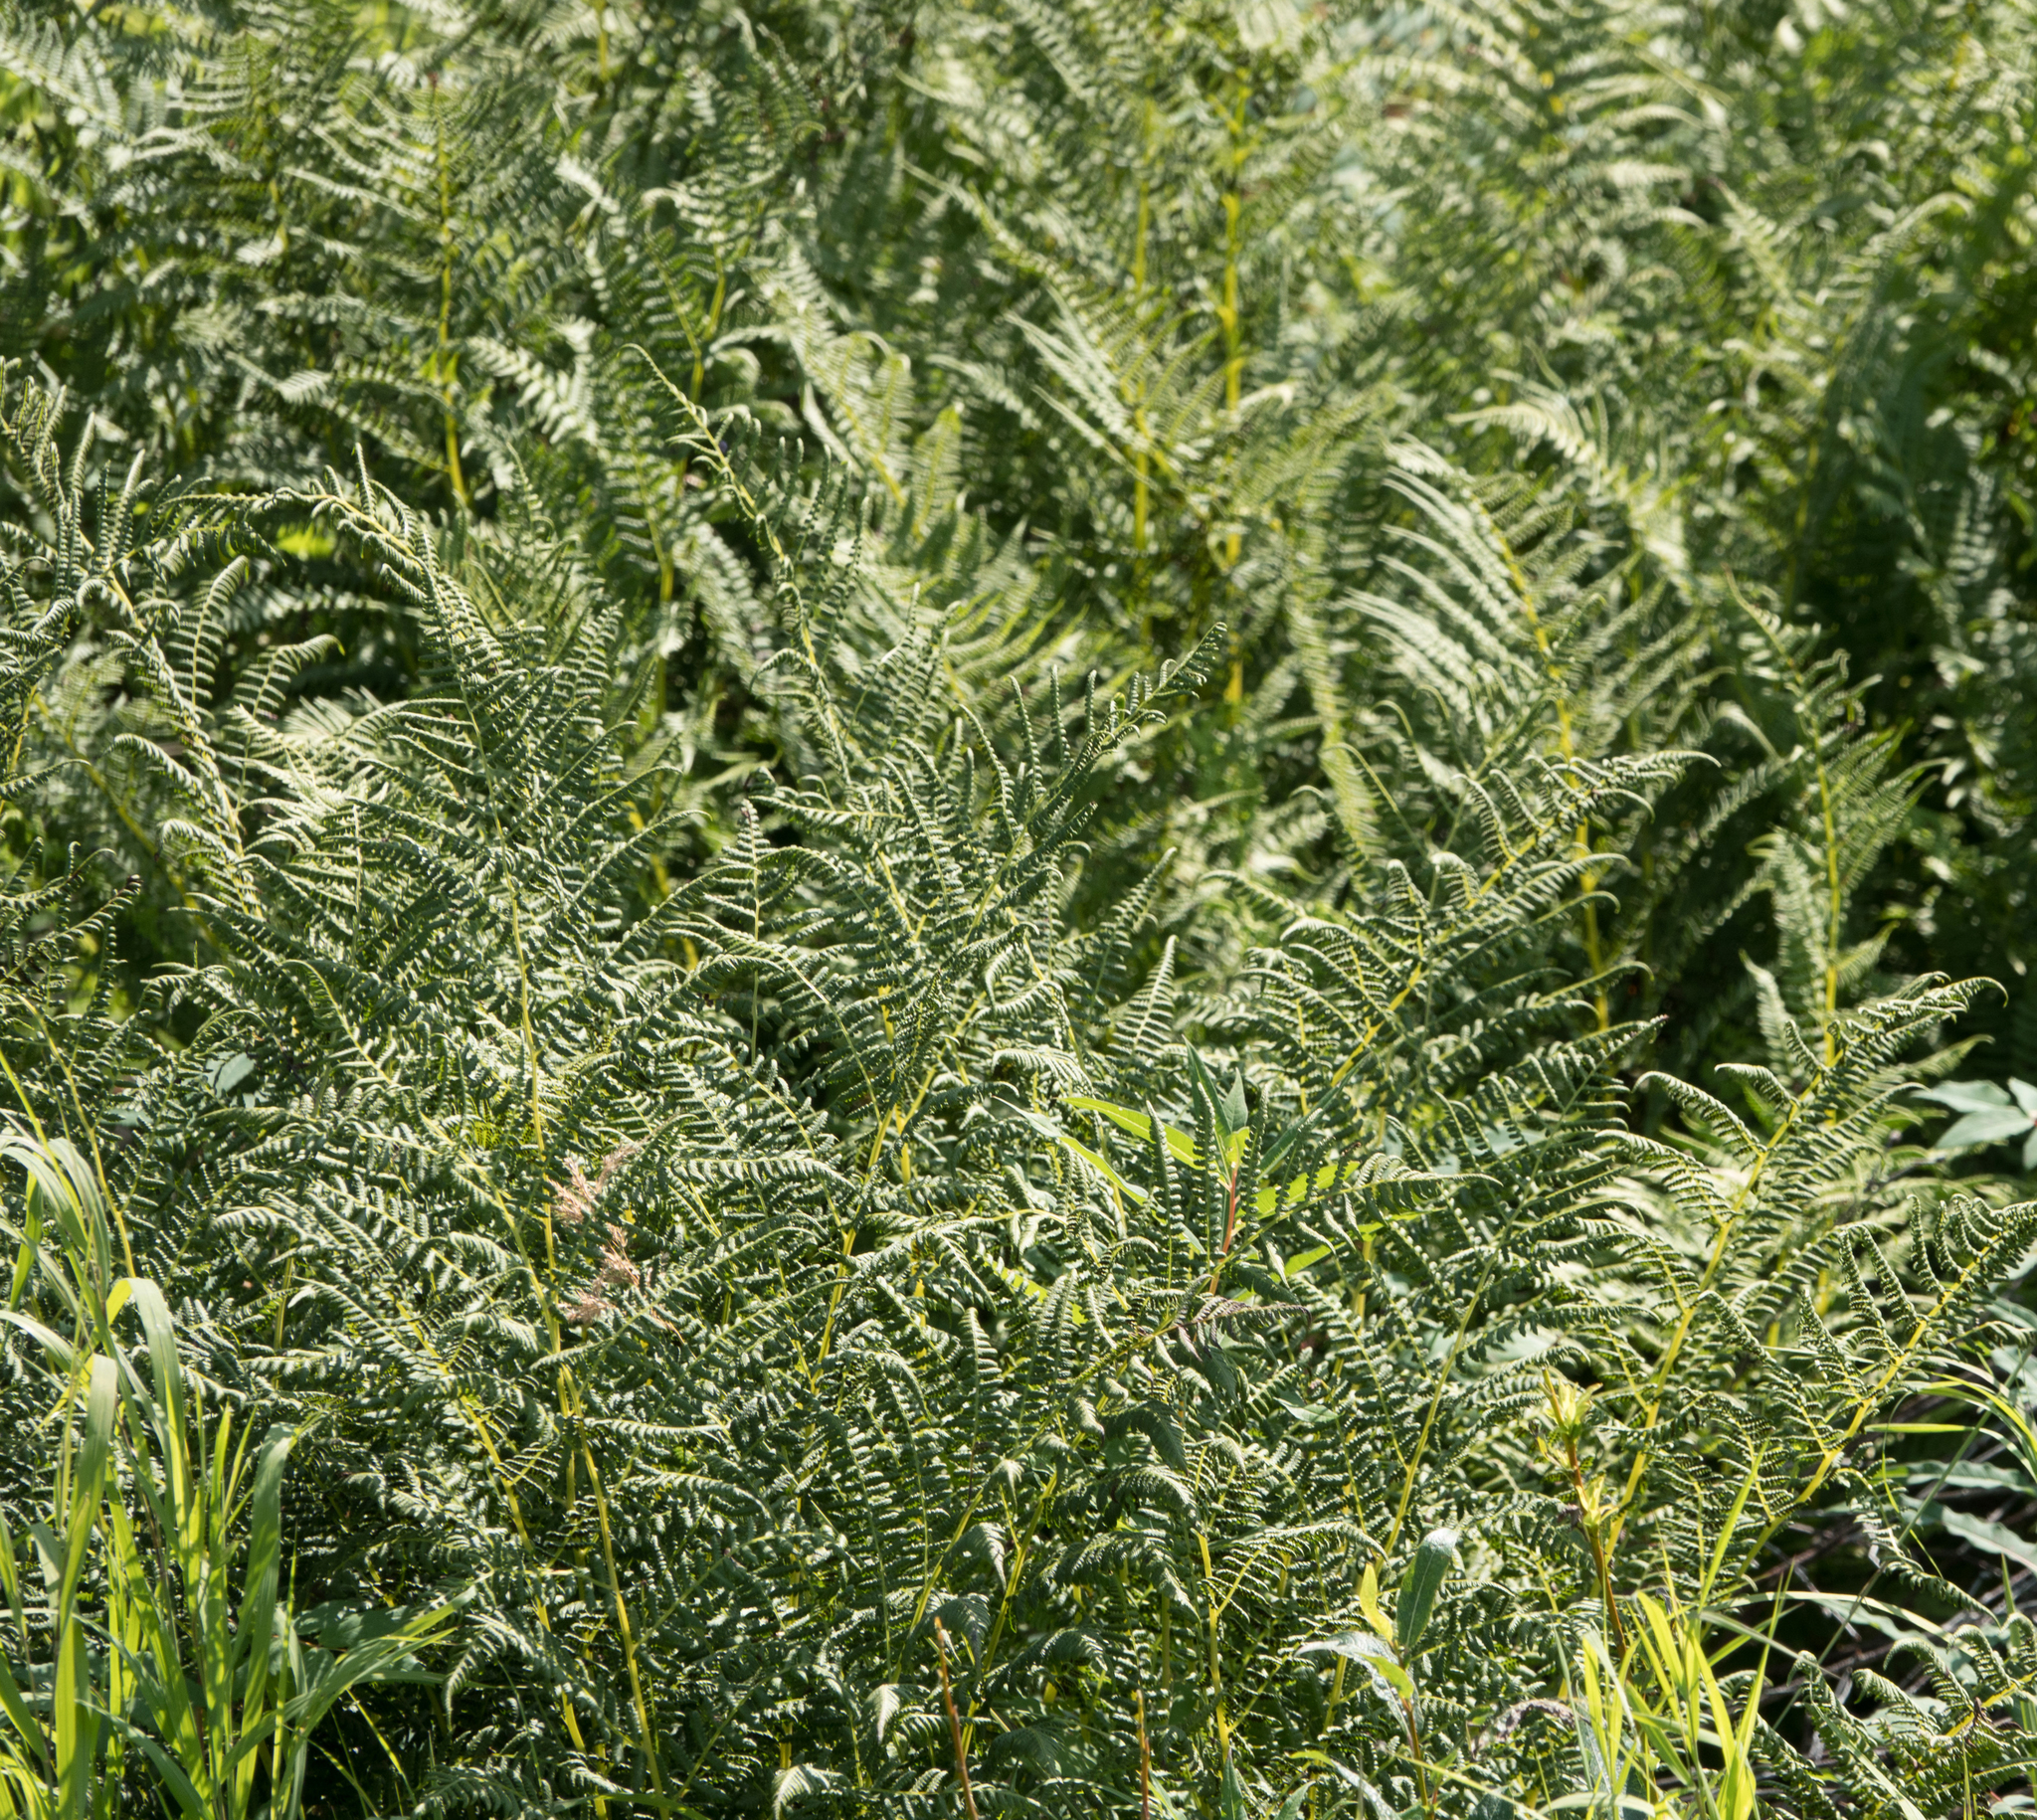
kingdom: Plantae
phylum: Tracheophyta
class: Polypodiopsida
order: Polypodiales
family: Athyriaceae
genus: Athyrium
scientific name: Athyrium cyclosorum
